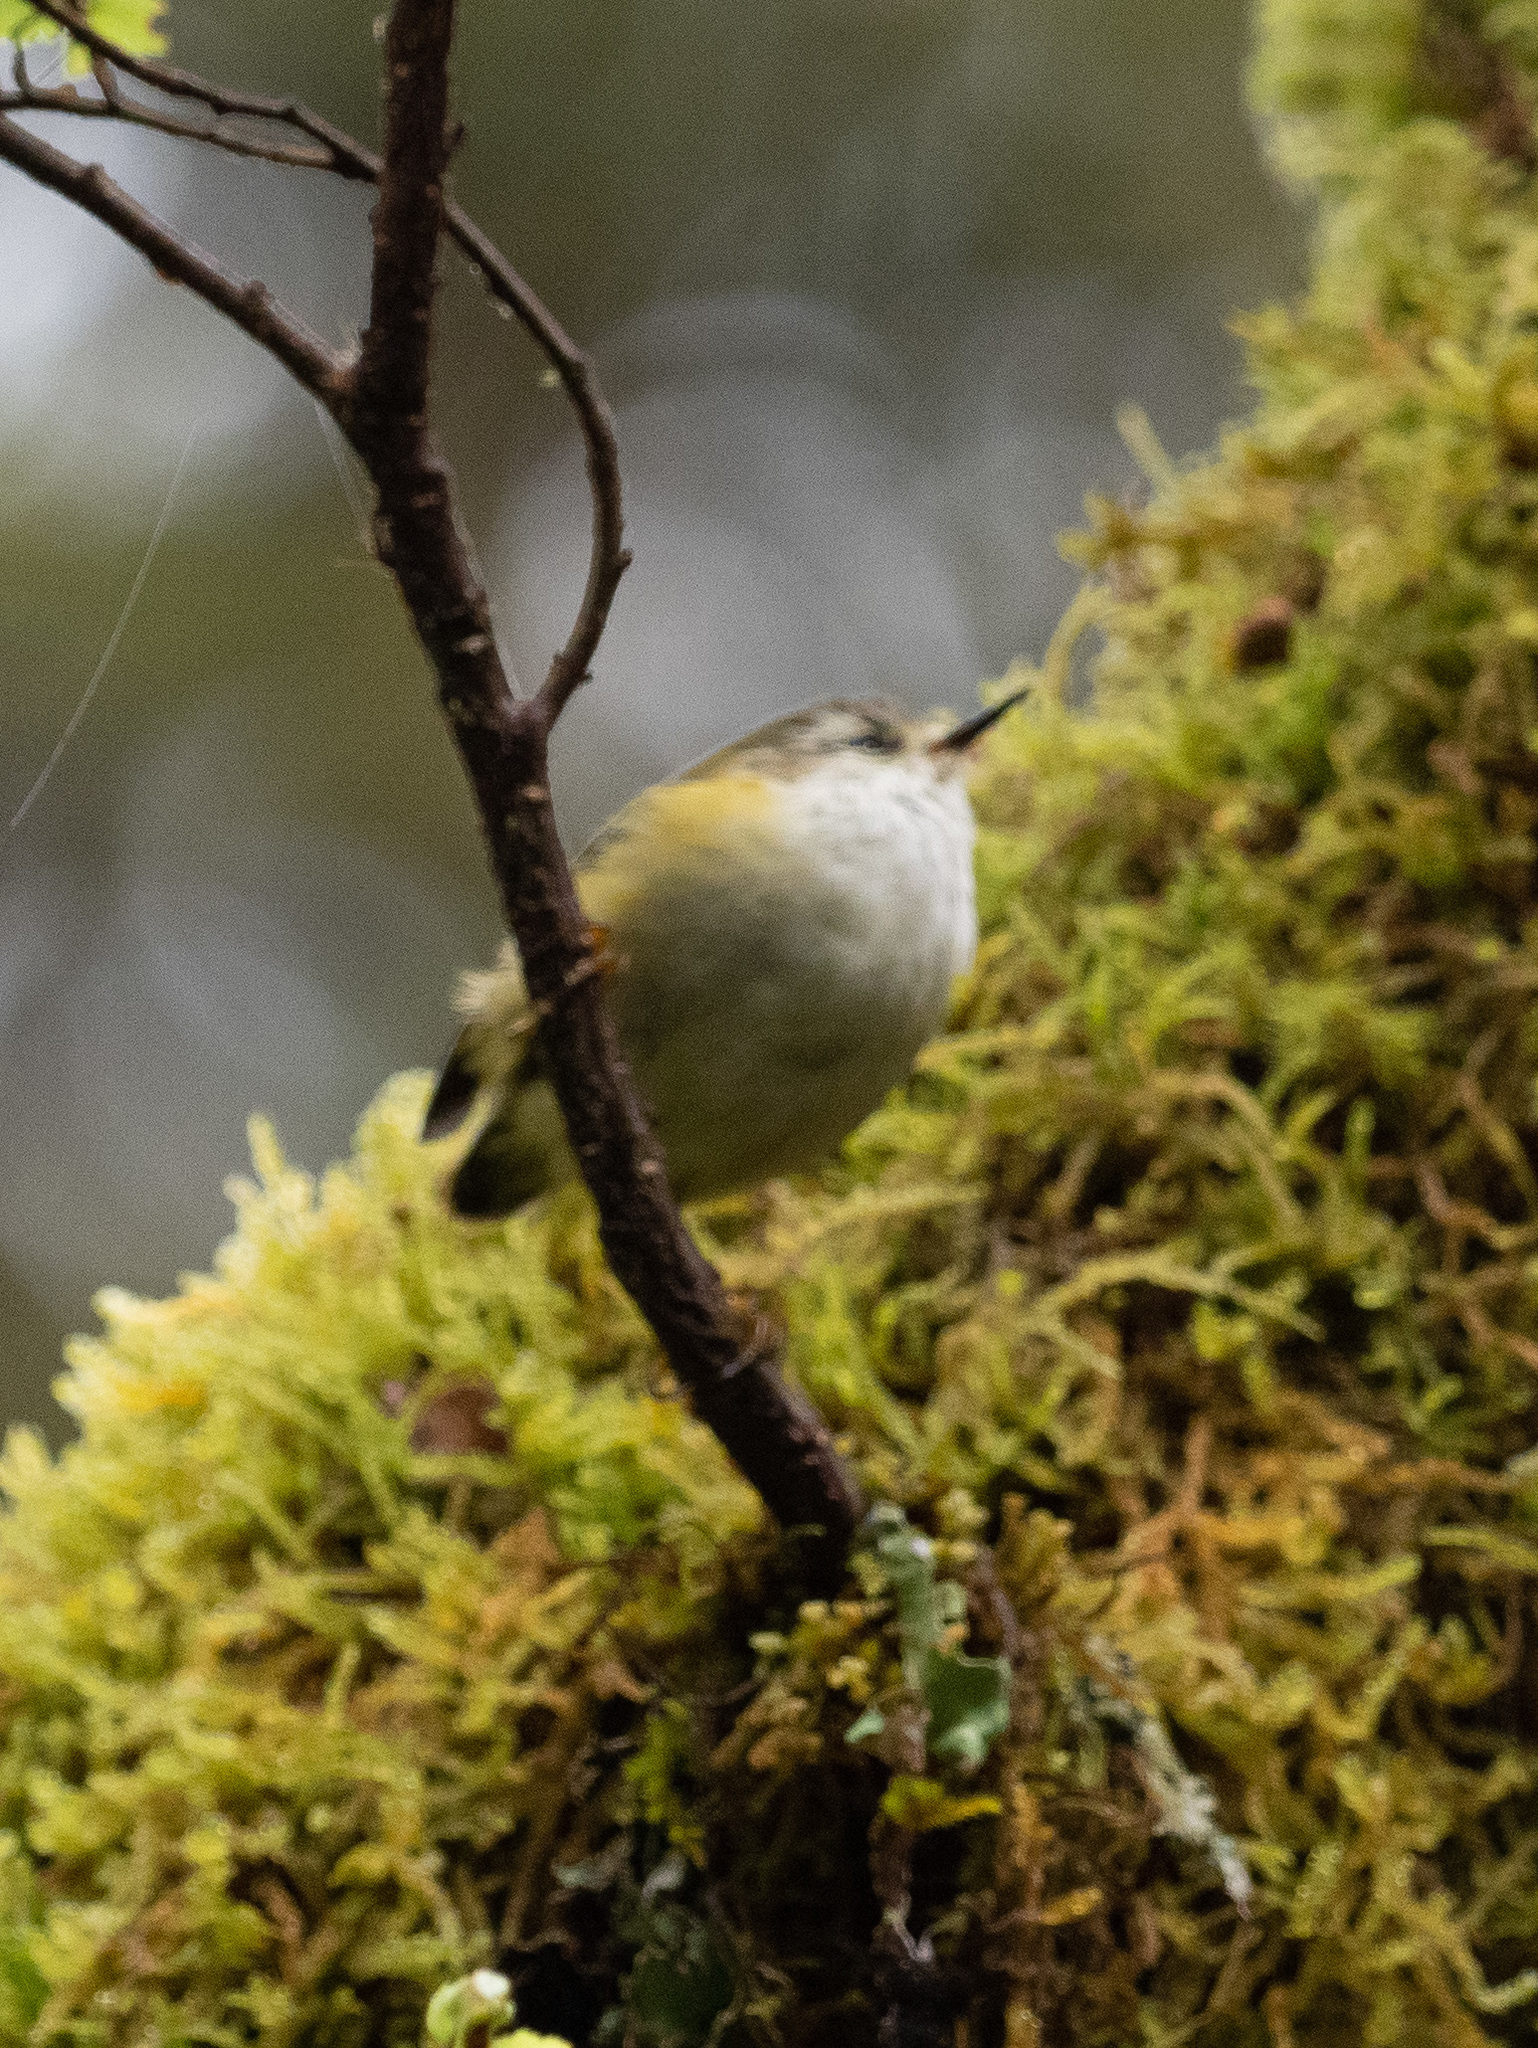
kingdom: Animalia
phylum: Chordata
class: Aves
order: Passeriformes
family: Acanthisittidae
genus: Acanthisitta
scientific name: Acanthisitta chloris
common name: Rifleman
